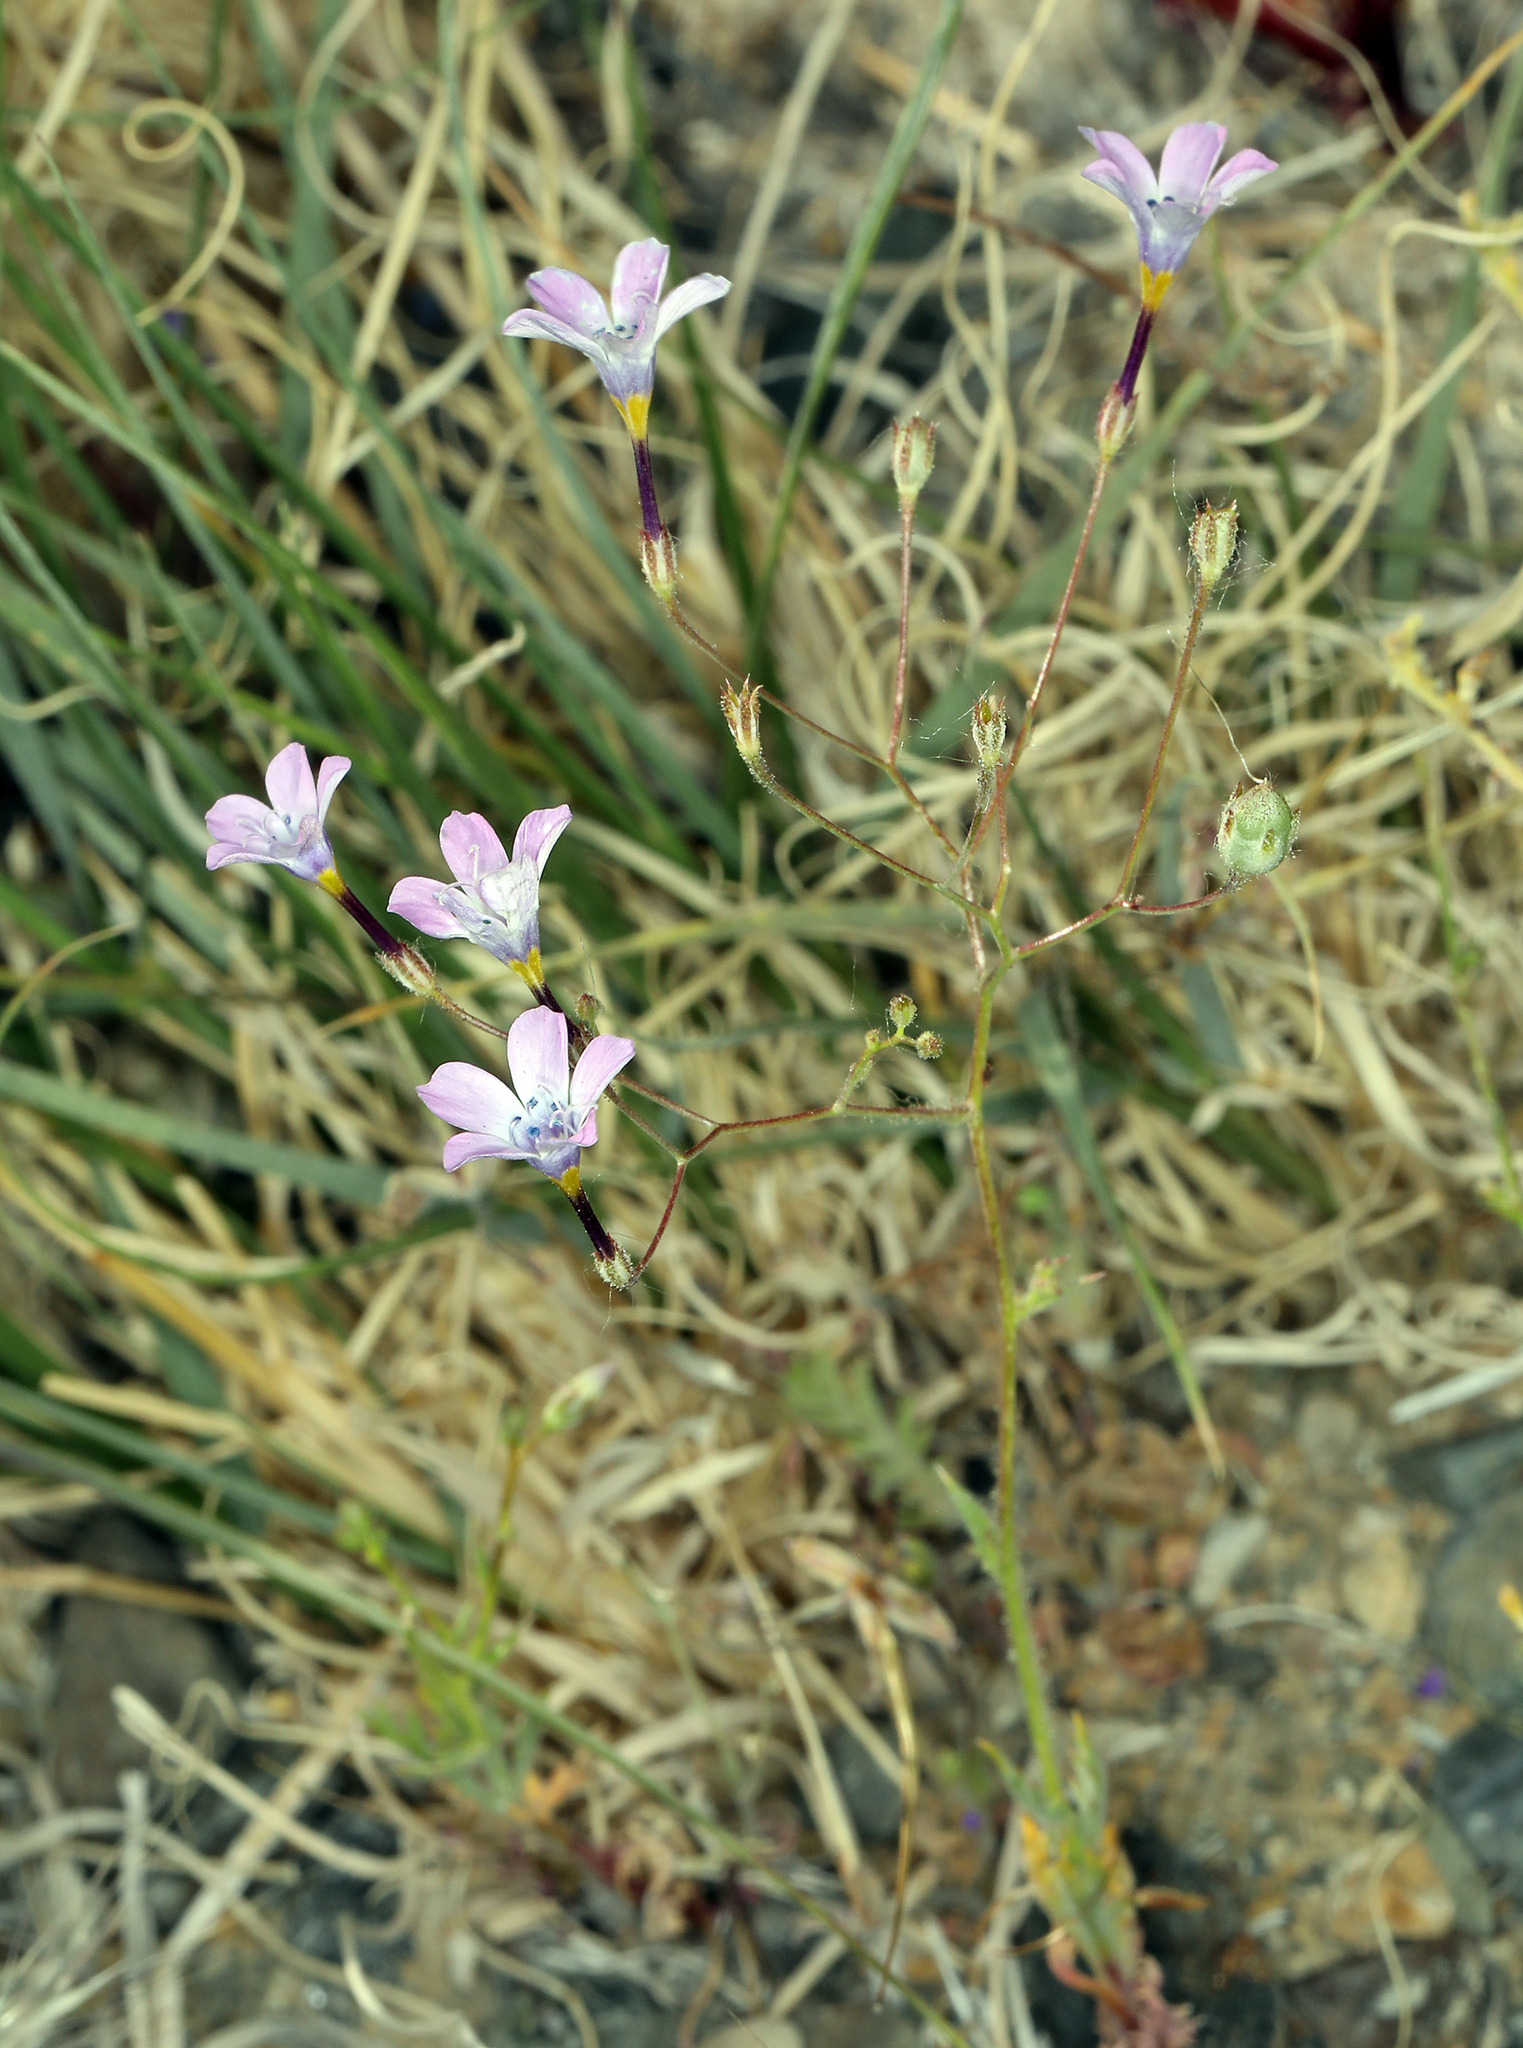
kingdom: Plantae
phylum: Tracheophyta
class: Magnoliopsida
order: Ericales
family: Polemoniaceae
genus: Gilia
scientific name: Gilia cana
